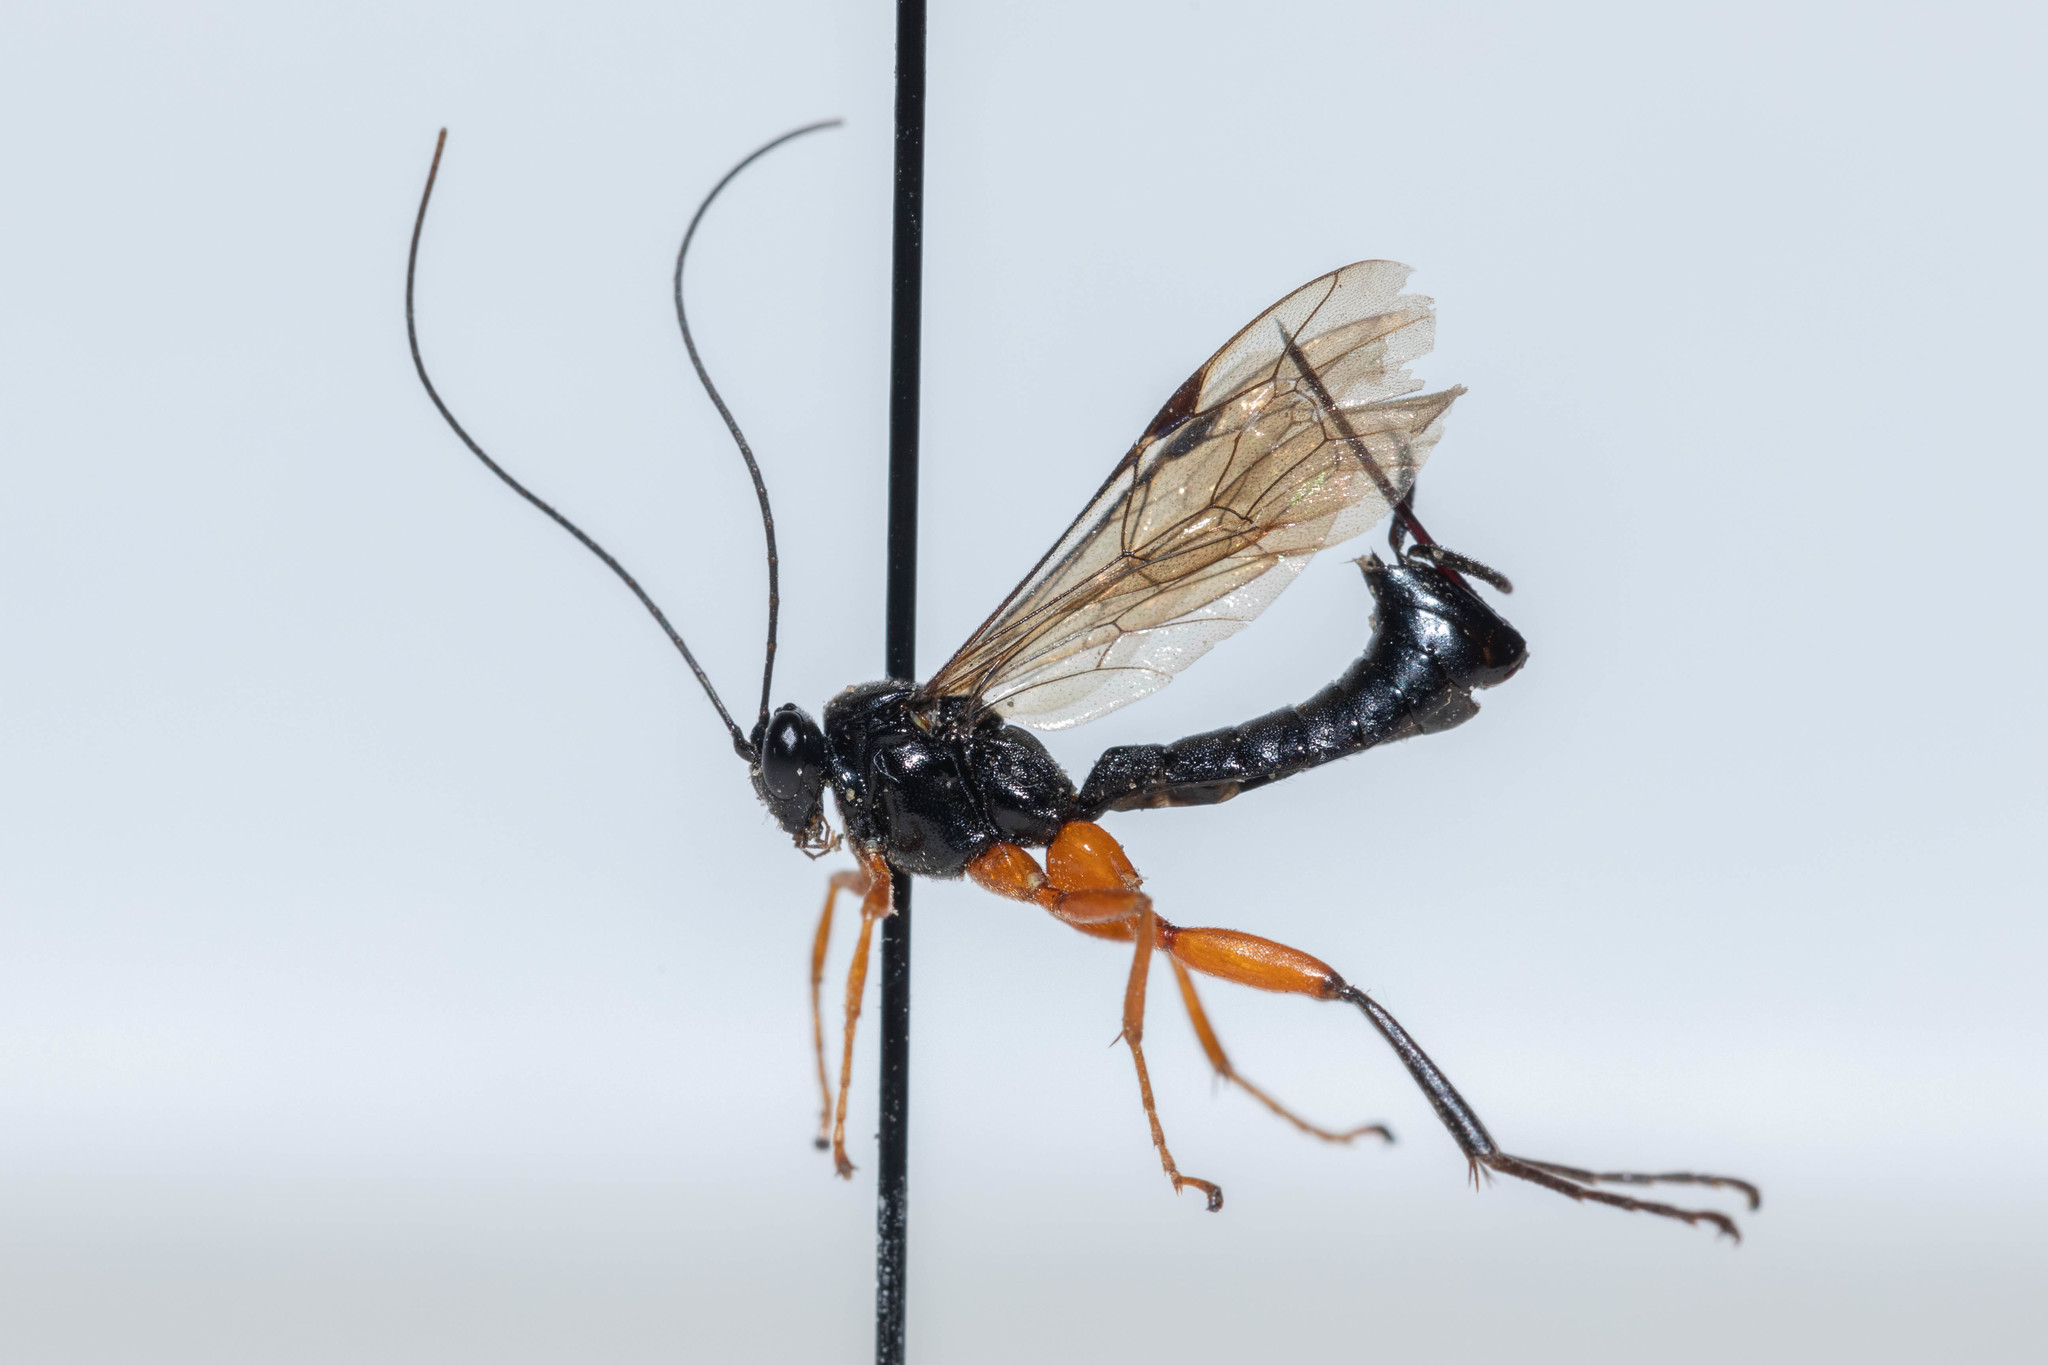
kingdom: Animalia
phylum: Arthropoda
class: Insecta
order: Hymenoptera
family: Ichneumonidae
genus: Pimpla
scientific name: Pimpla pedalis
